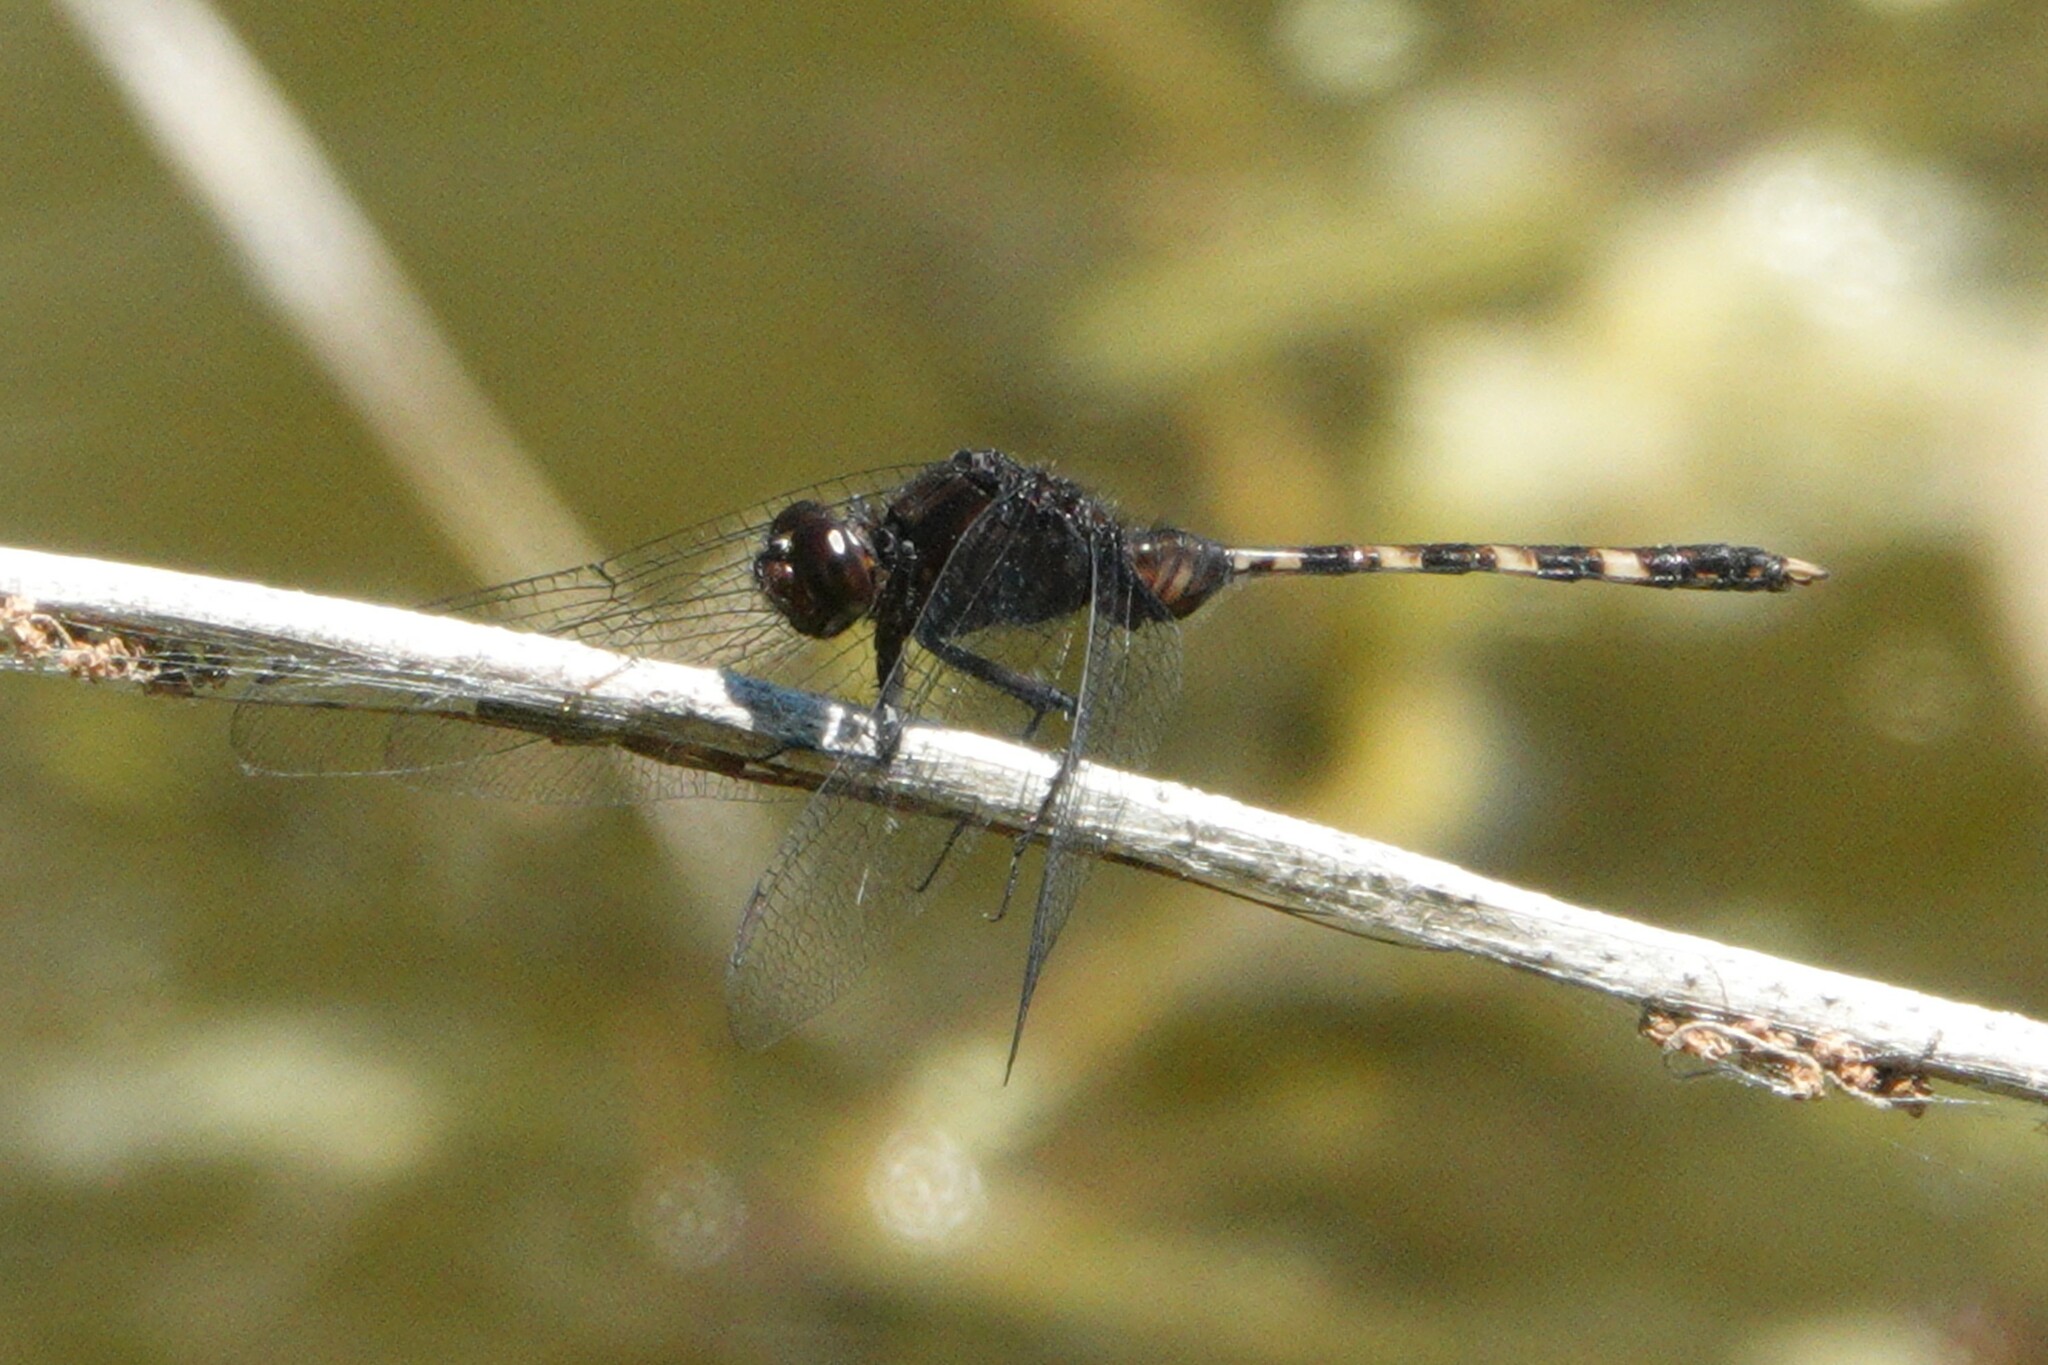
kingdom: Animalia
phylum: Arthropoda
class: Insecta
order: Odonata
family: Libellulidae
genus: Erythemis
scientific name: Erythemis plebeja
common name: Pin-tailed pondhawk
